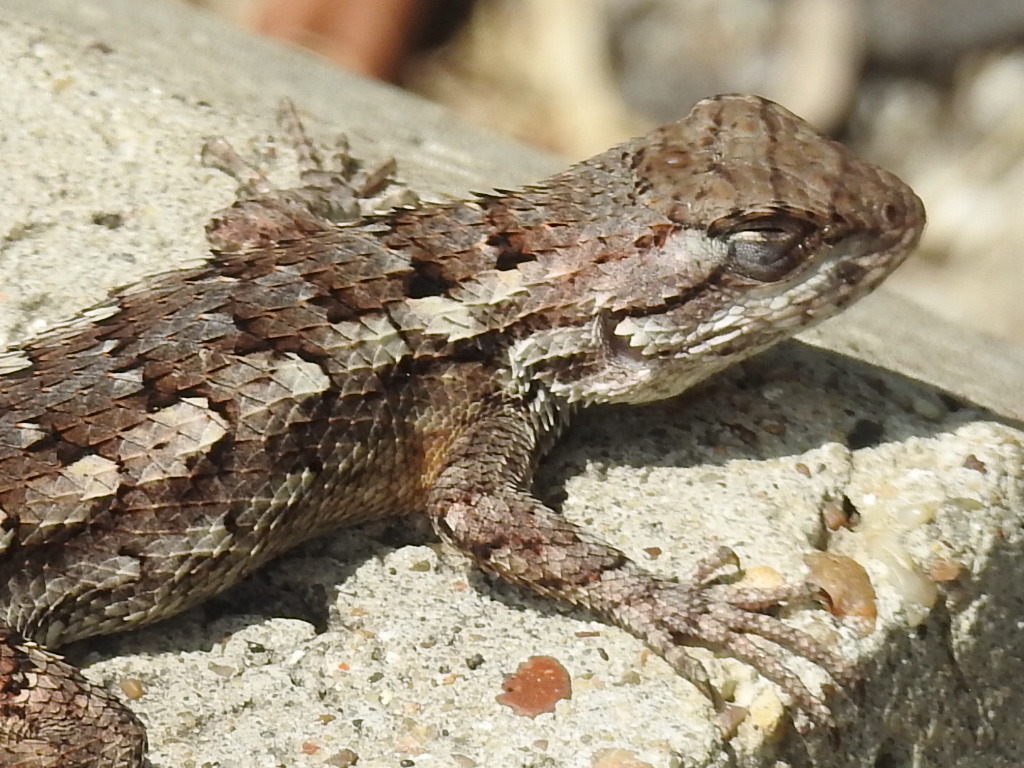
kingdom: Animalia
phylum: Chordata
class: Squamata
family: Phrynosomatidae
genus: Sceloporus
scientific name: Sceloporus olivaceus
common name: Texas spiny lizard
